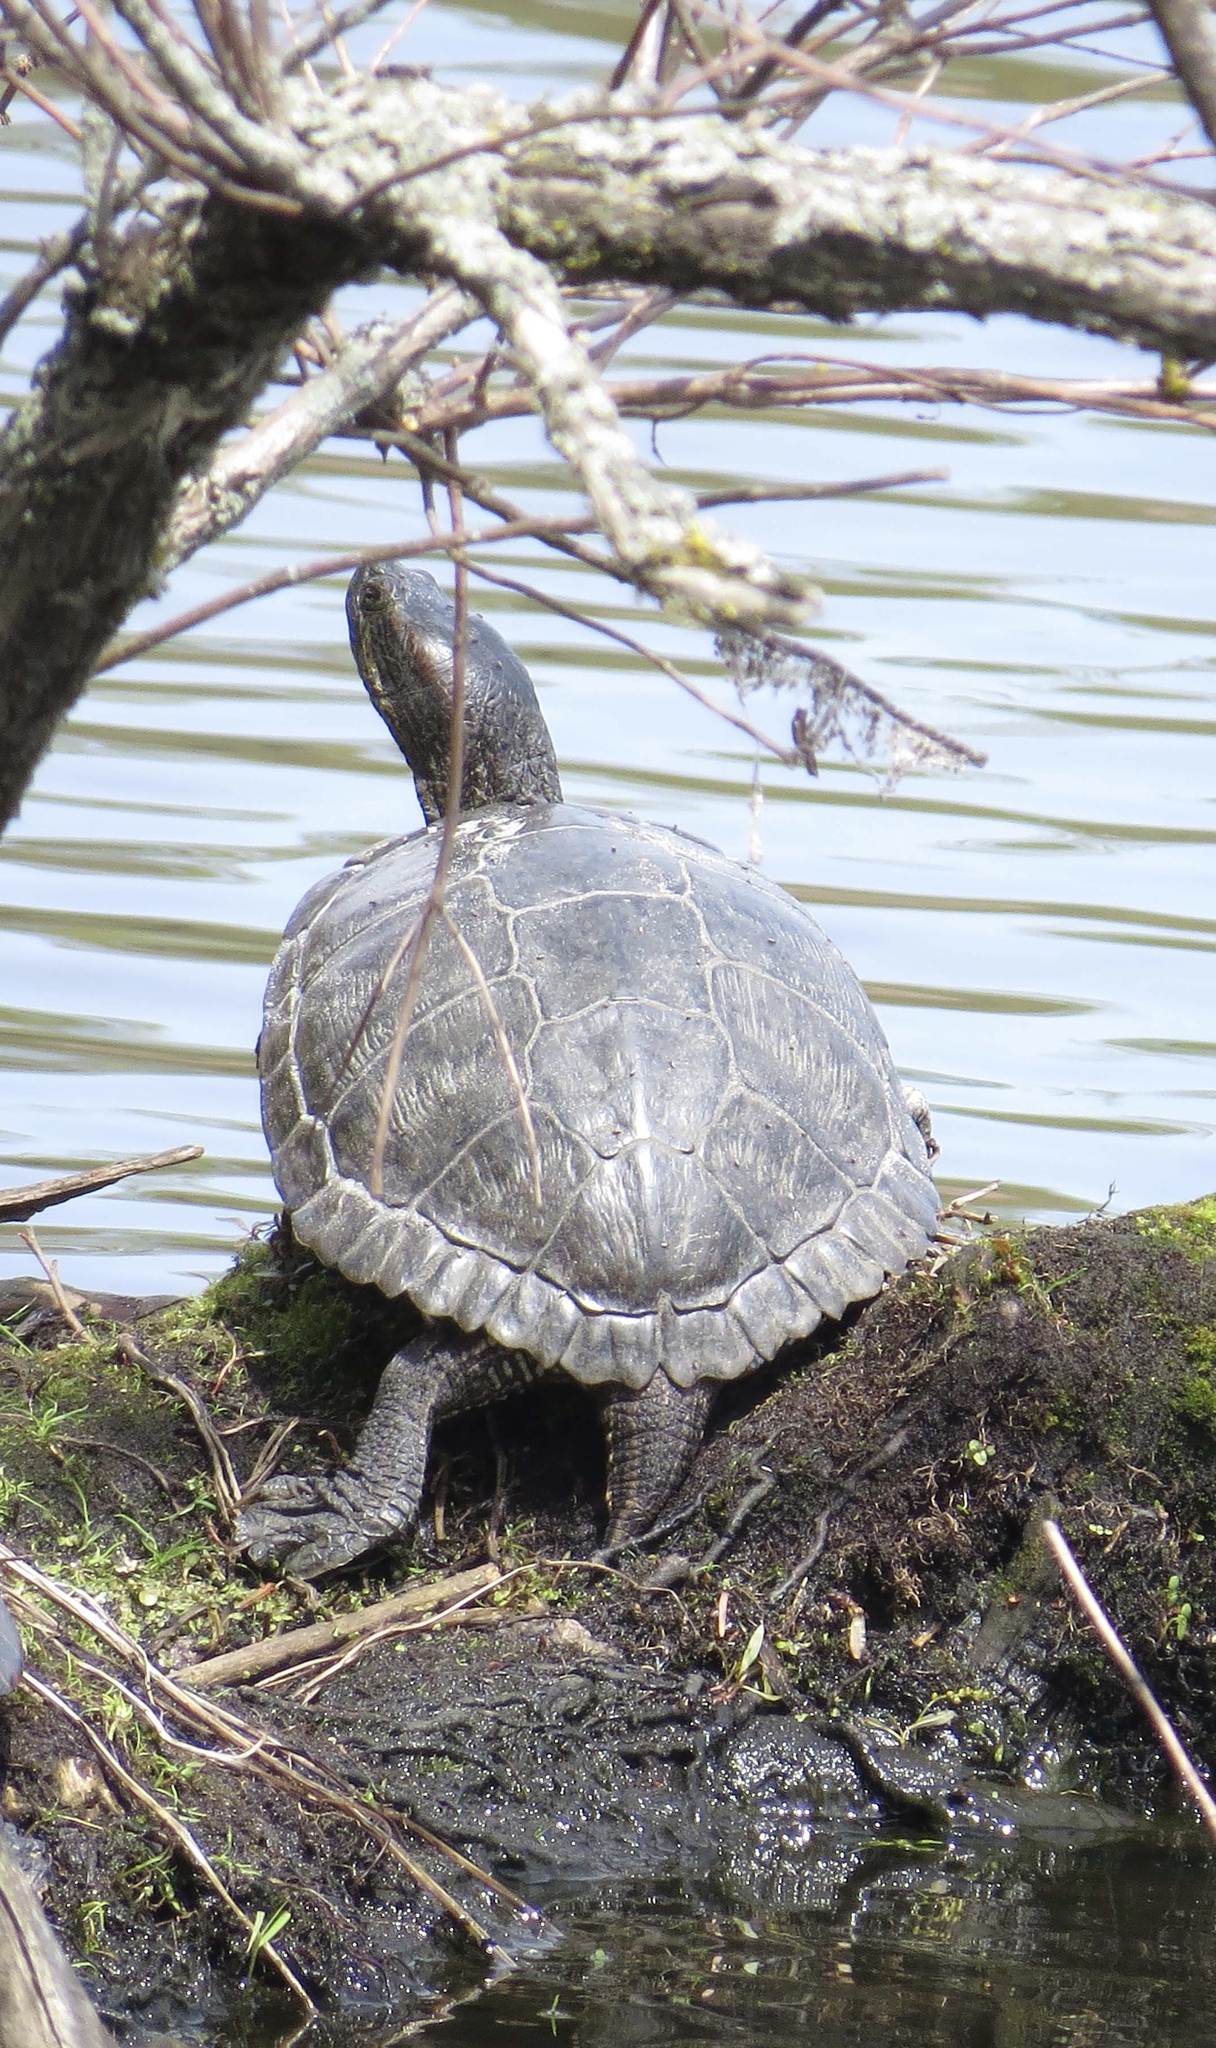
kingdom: Animalia
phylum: Chordata
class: Testudines
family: Emydidae
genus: Trachemys
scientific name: Trachemys scripta
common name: Slider
